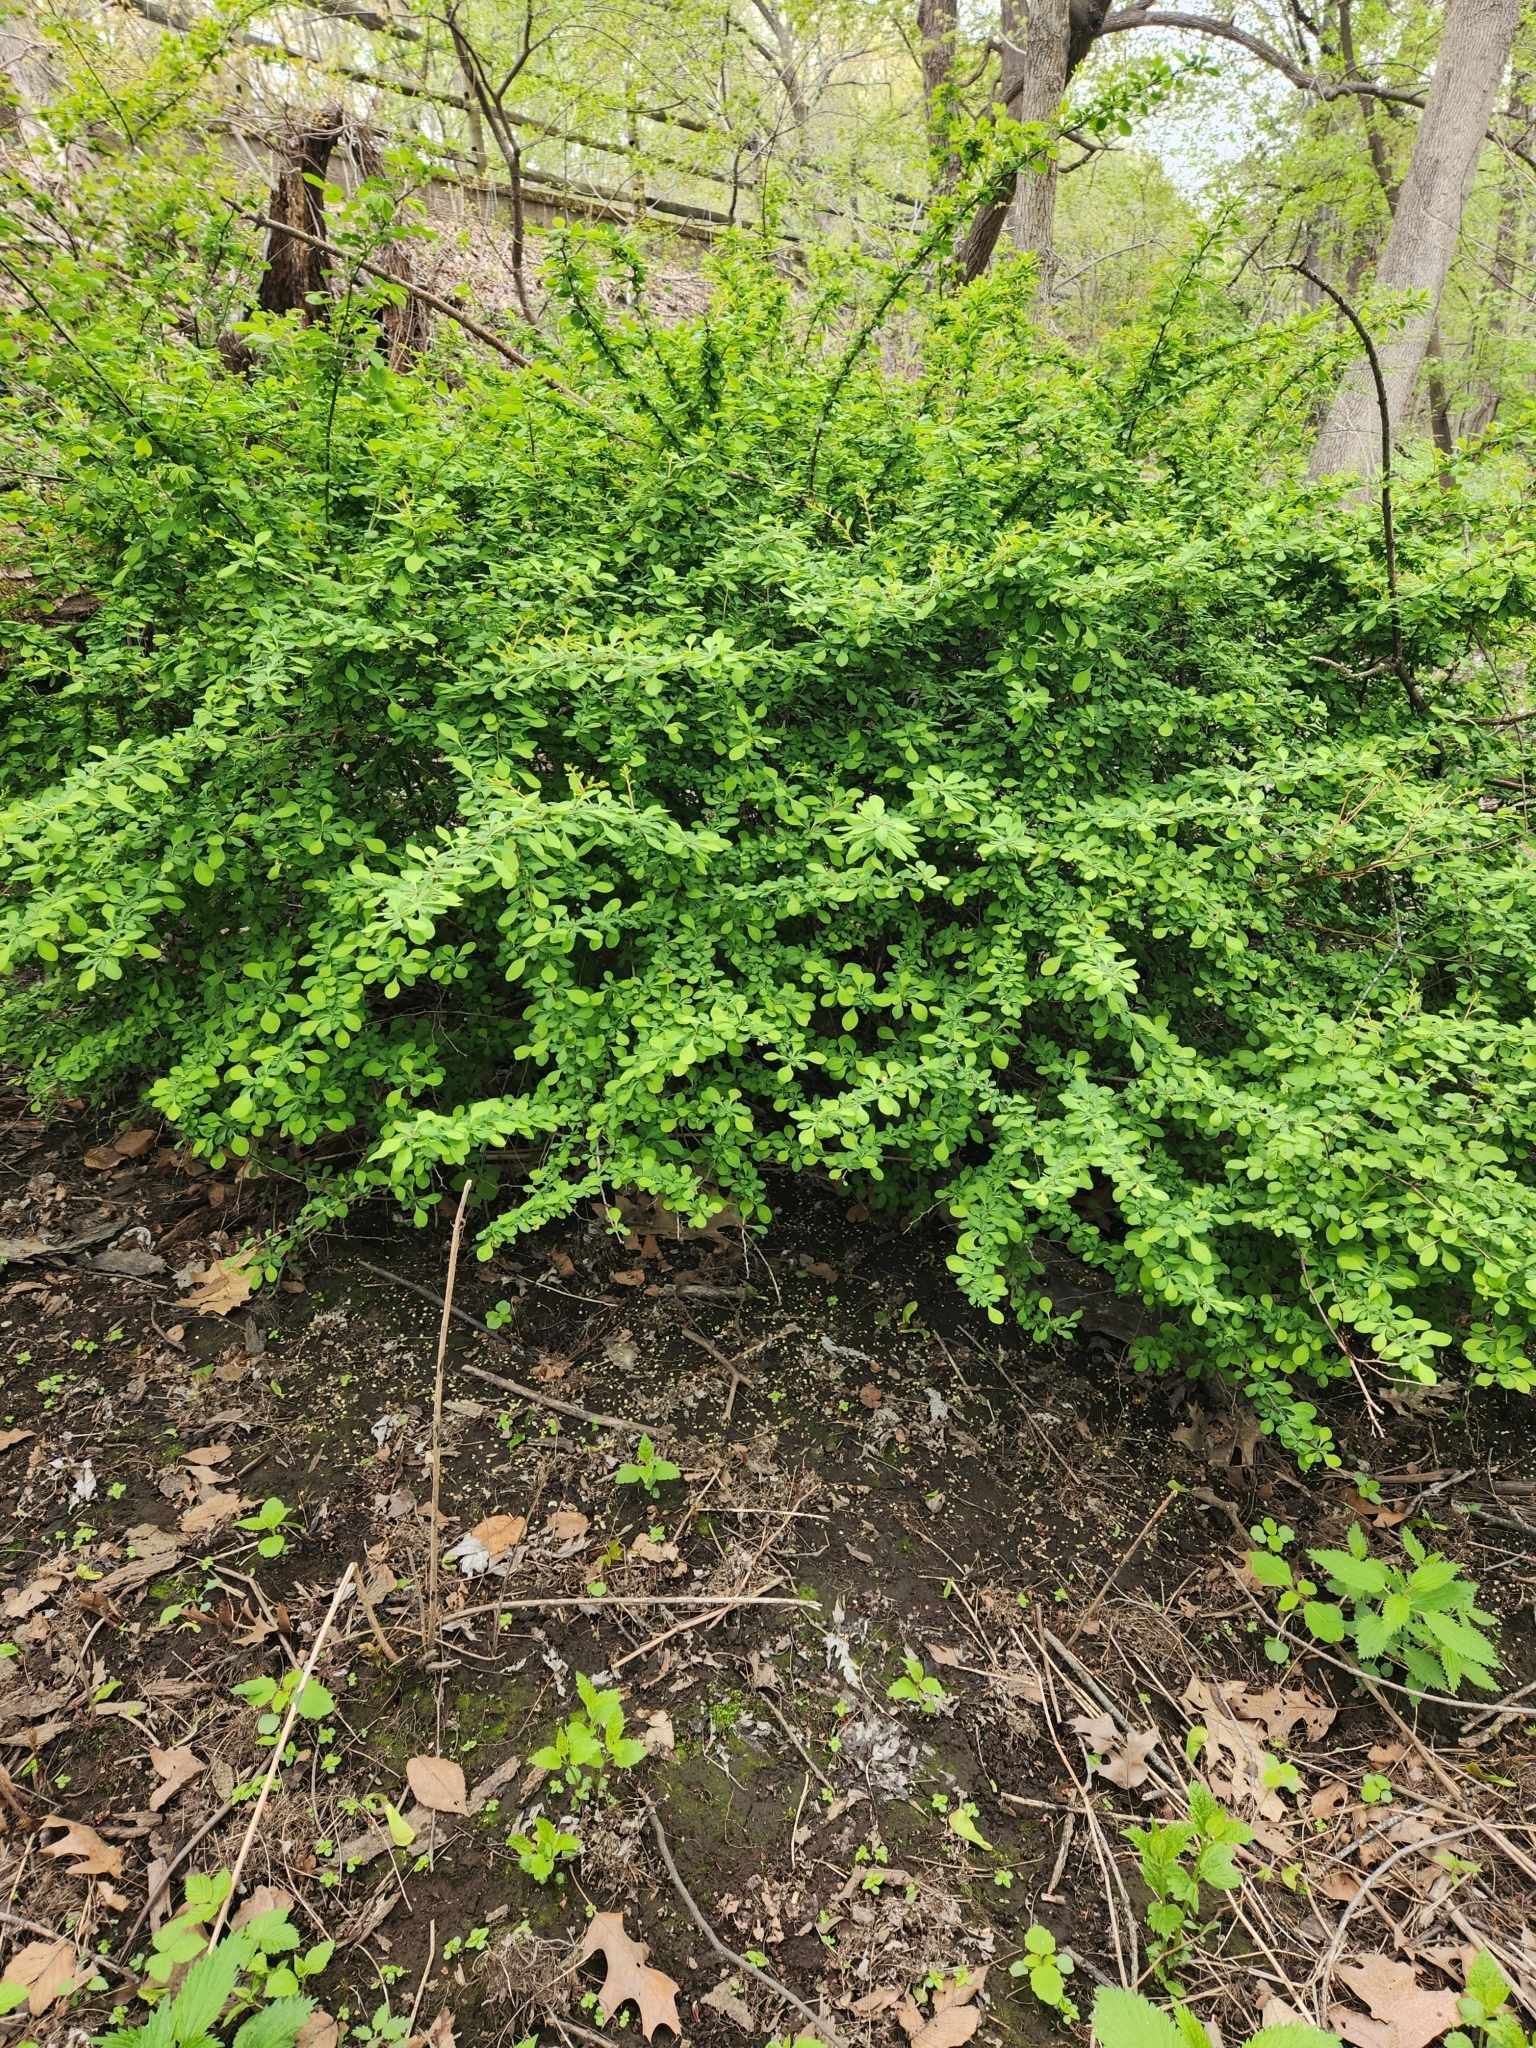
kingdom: Plantae
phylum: Tracheophyta
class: Magnoliopsida
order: Ranunculales
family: Berberidaceae
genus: Berberis
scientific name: Berberis thunbergii
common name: Japanese barberry
